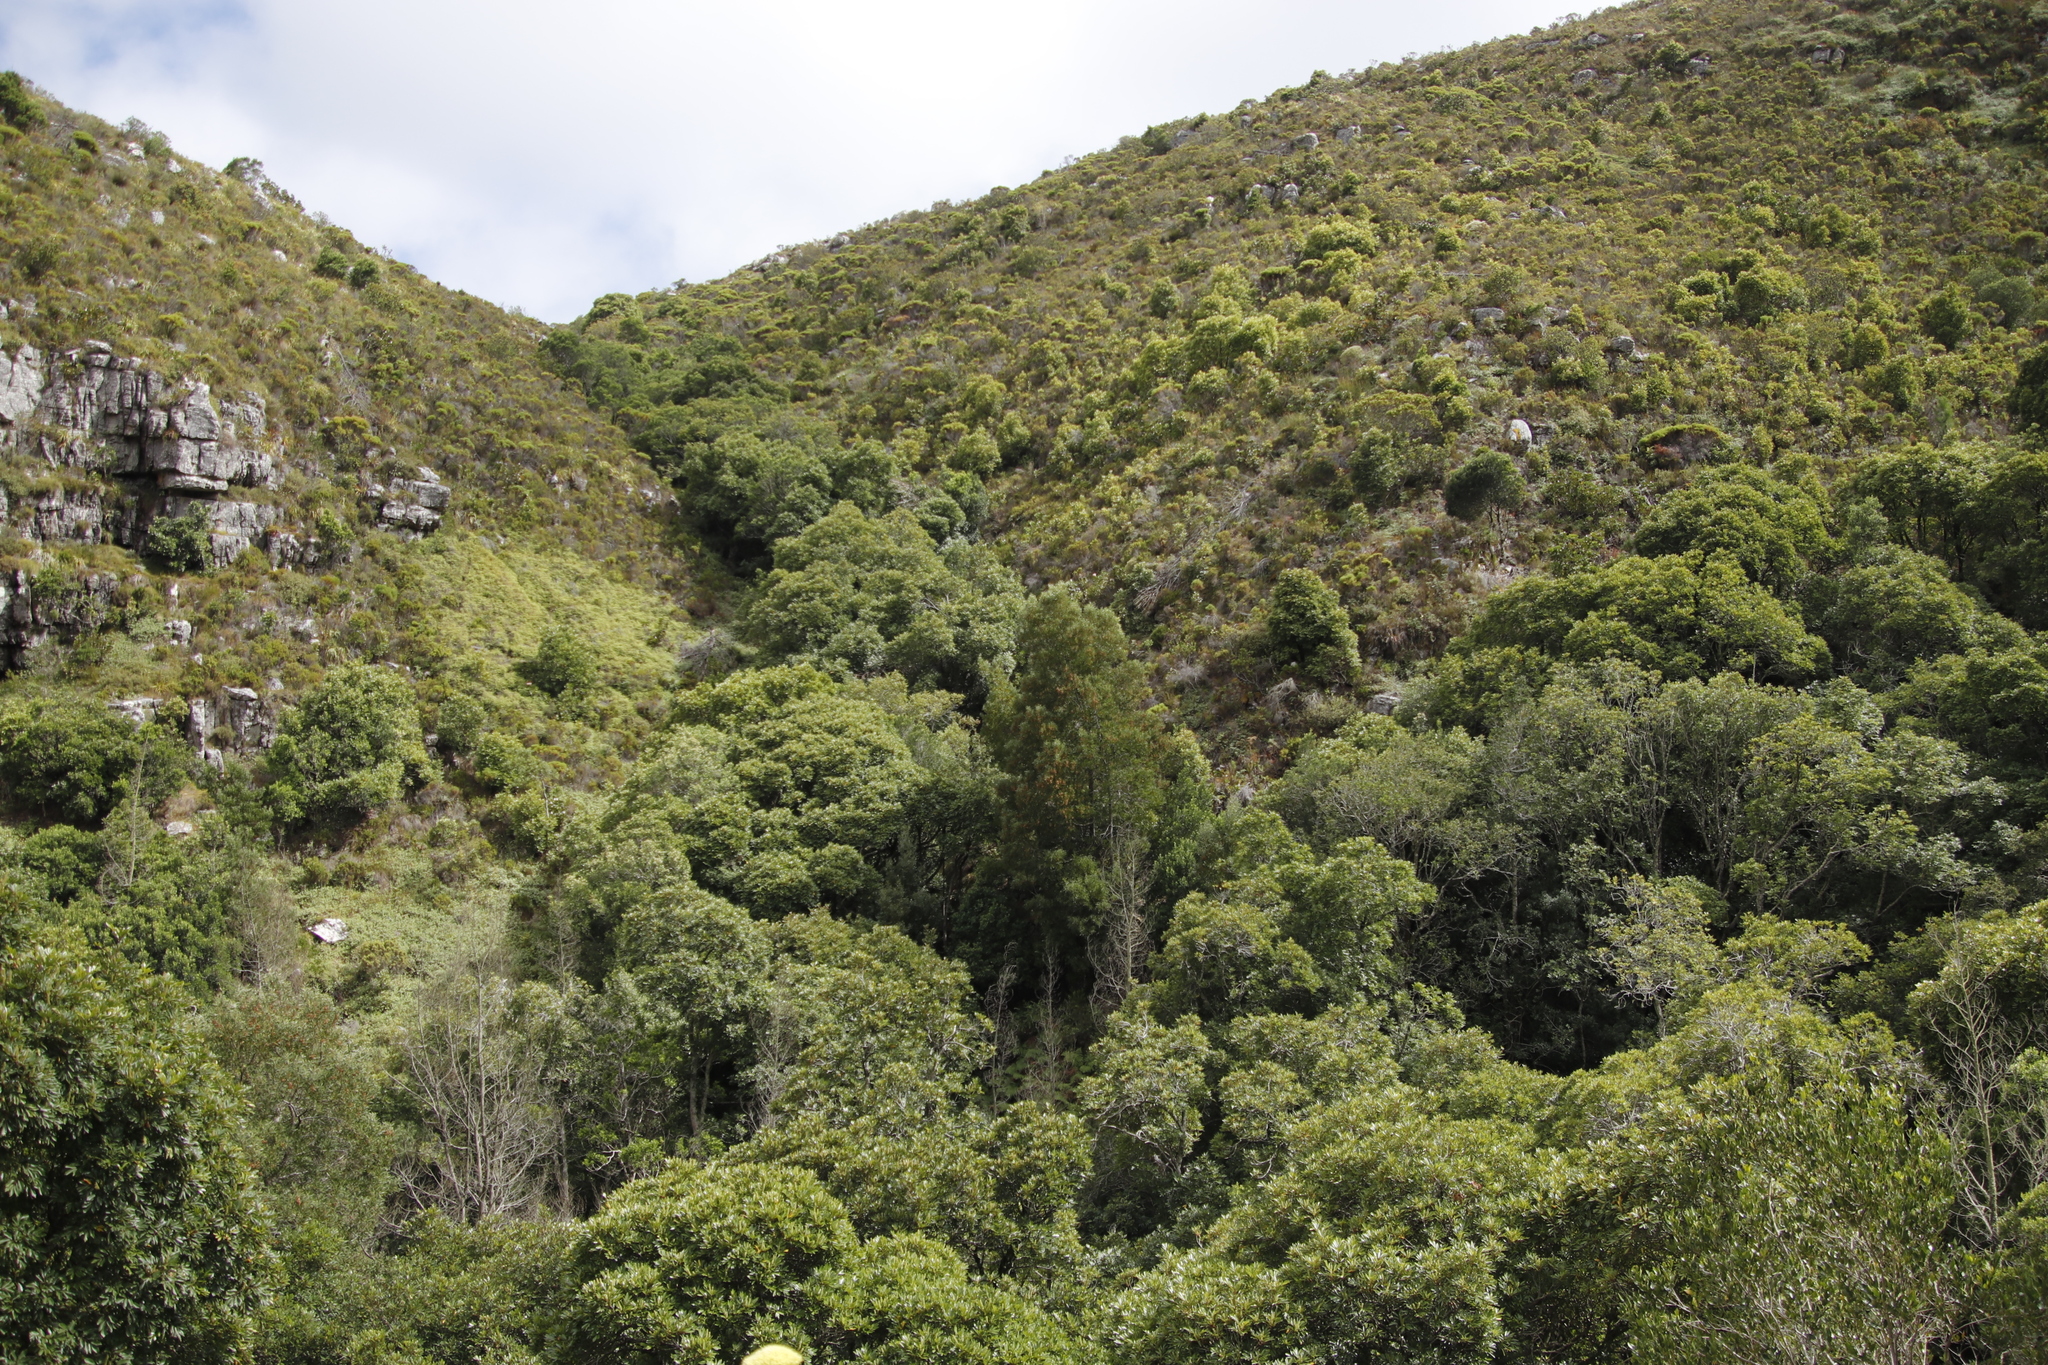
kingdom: Plantae
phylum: Tracheophyta
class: Magnoliopsida
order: Fabales
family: Fabaceae
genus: Acacia
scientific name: Acacia melanoxylon
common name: Blackwood
